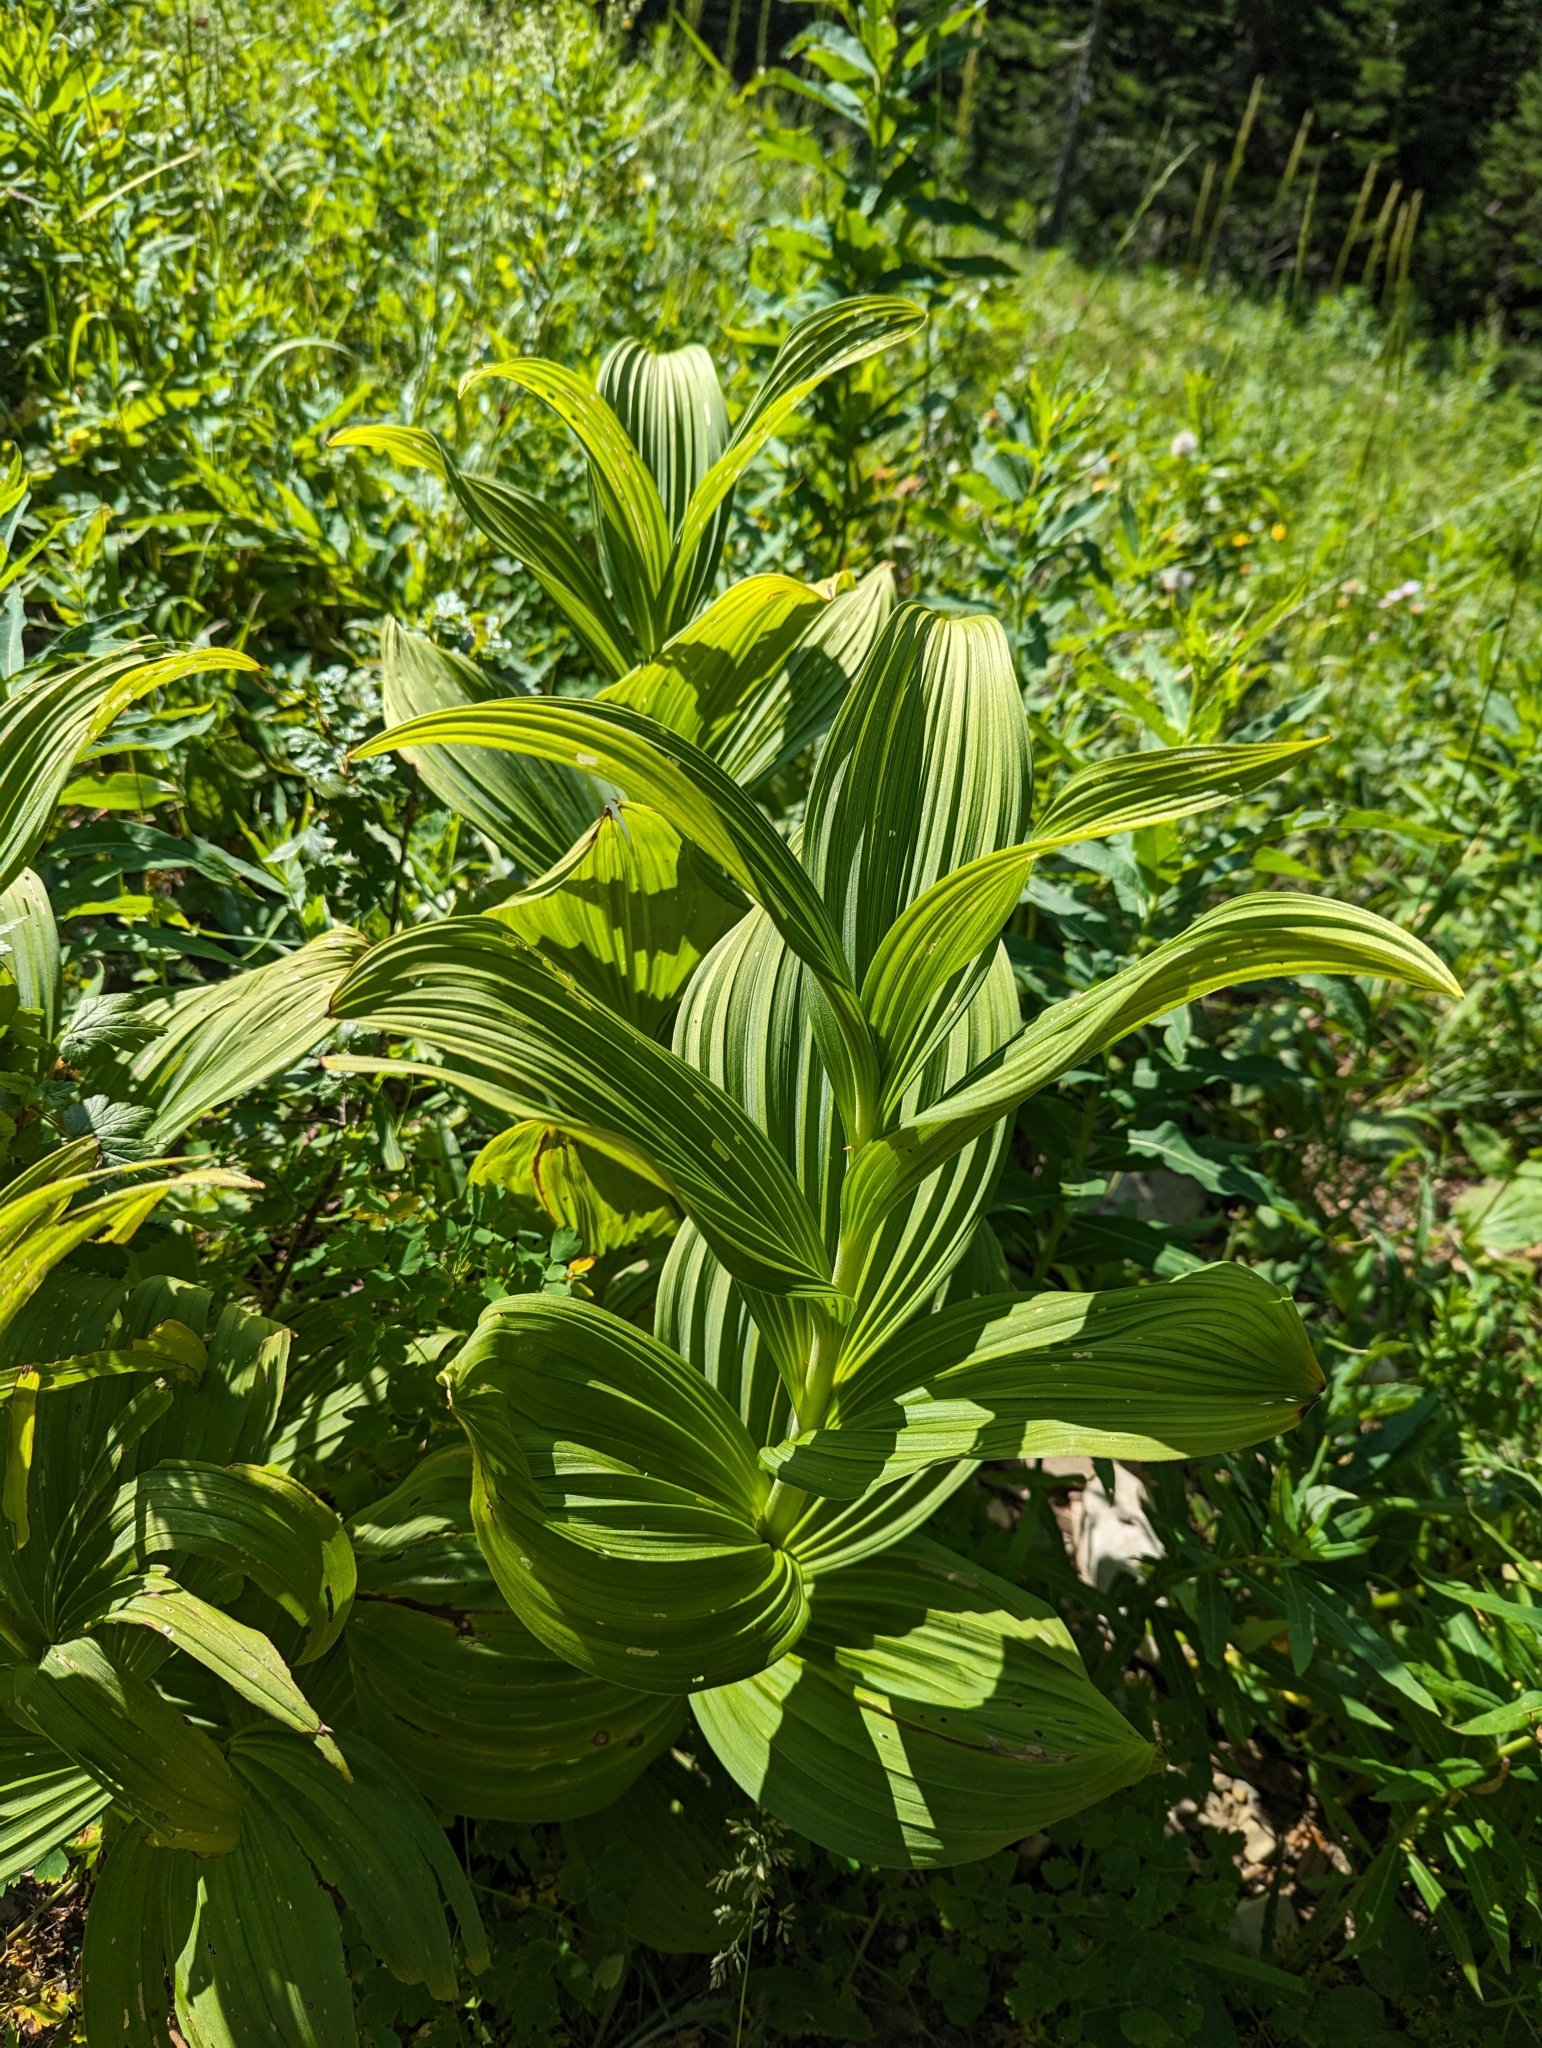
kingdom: Plantae
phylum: Tracheophyta
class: Liliopsida
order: Liliales
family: Melanthiaceae
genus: Veratrum
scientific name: Veratrum viride
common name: American false hellebore
